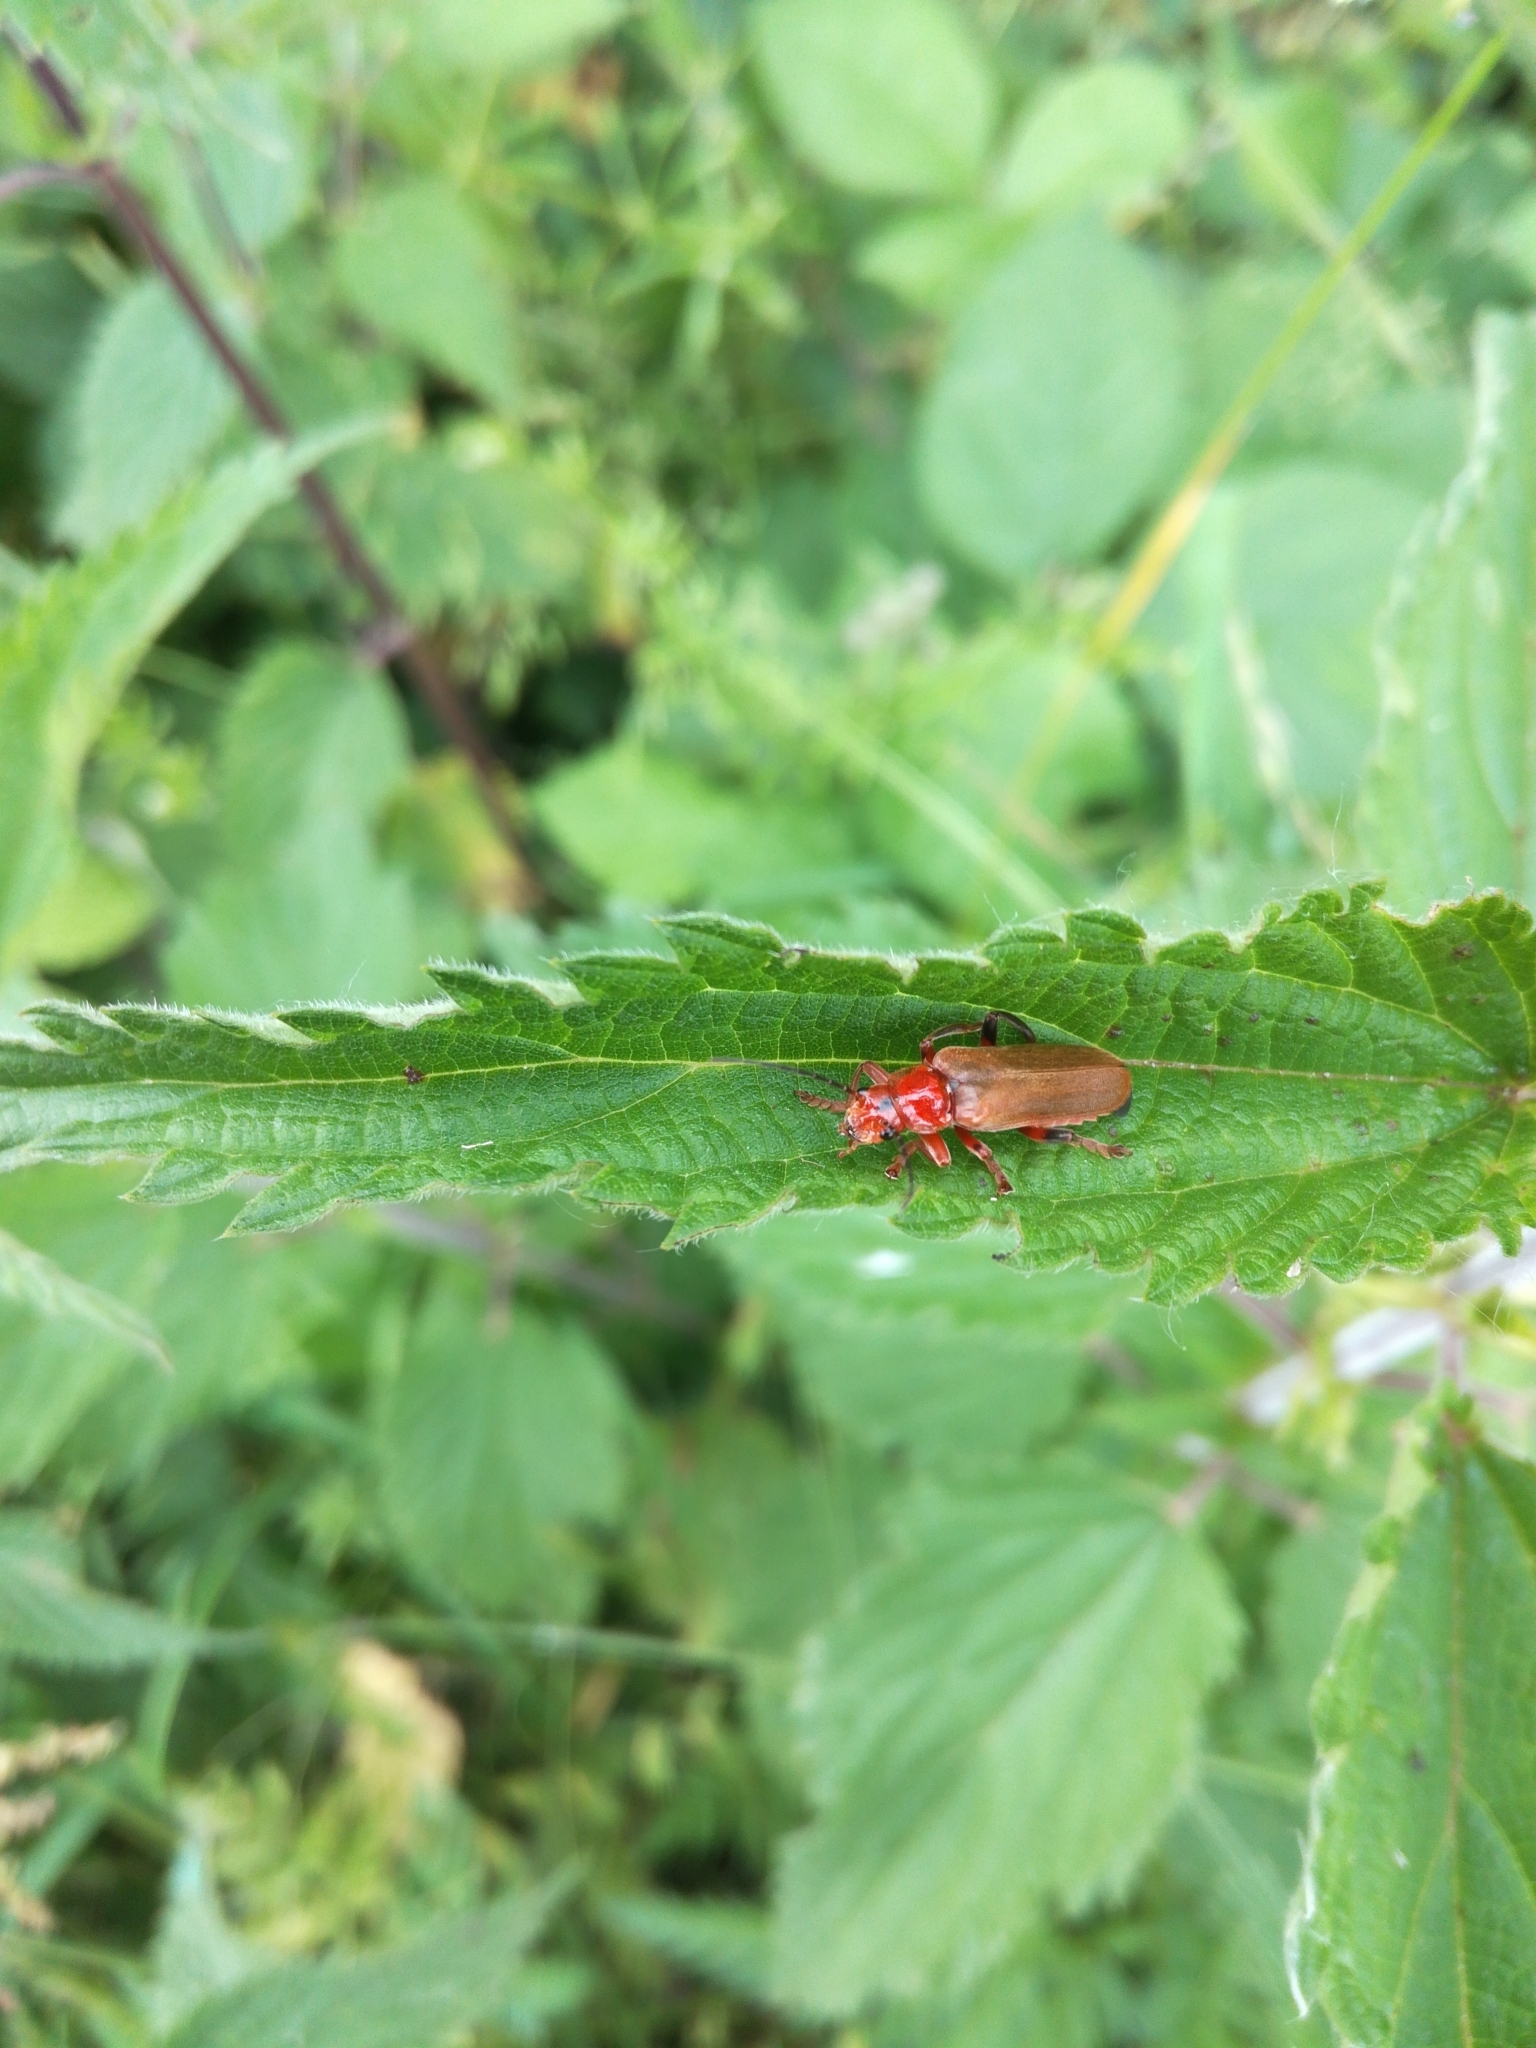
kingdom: Animalia
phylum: Arthropoda
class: Insecta
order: Coleoptera
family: Cantharidae
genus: Cantharis
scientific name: Cantharis livida
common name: Livid soldier beetle
